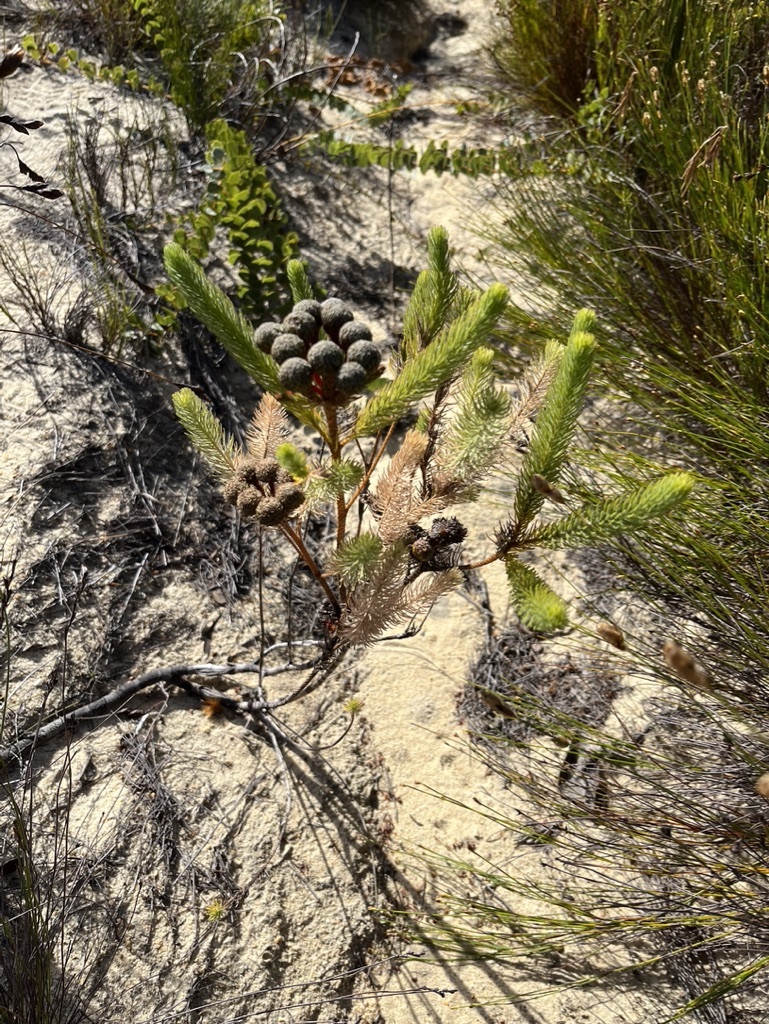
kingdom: Plantae
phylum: Tracheophyta
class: Magnoliopsida
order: Bruniales
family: Bruniaceae
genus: Berzelia
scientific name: Berzelia albiflora
